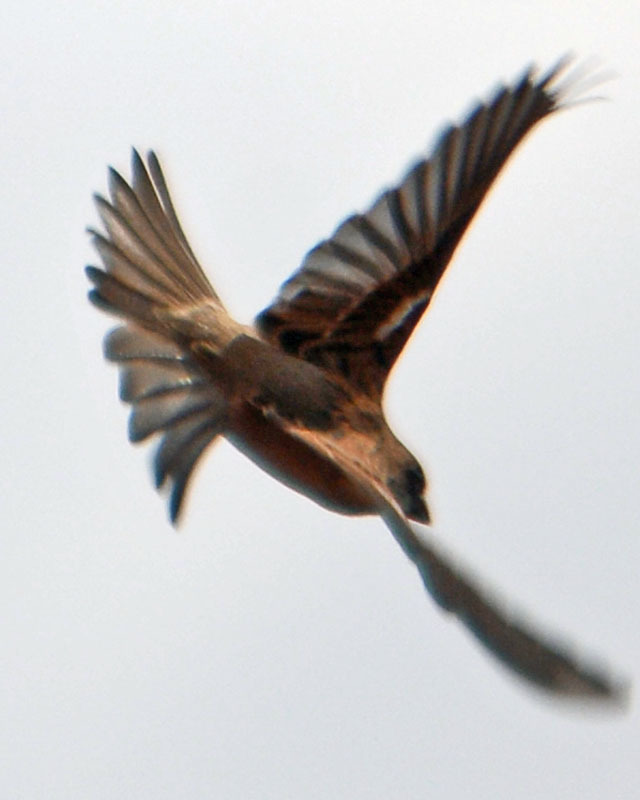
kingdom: Animalia
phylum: Chordata
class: Aves
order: Passeriformes
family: Passeridae
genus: Passer
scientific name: Passer domesticus
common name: House sparrow
